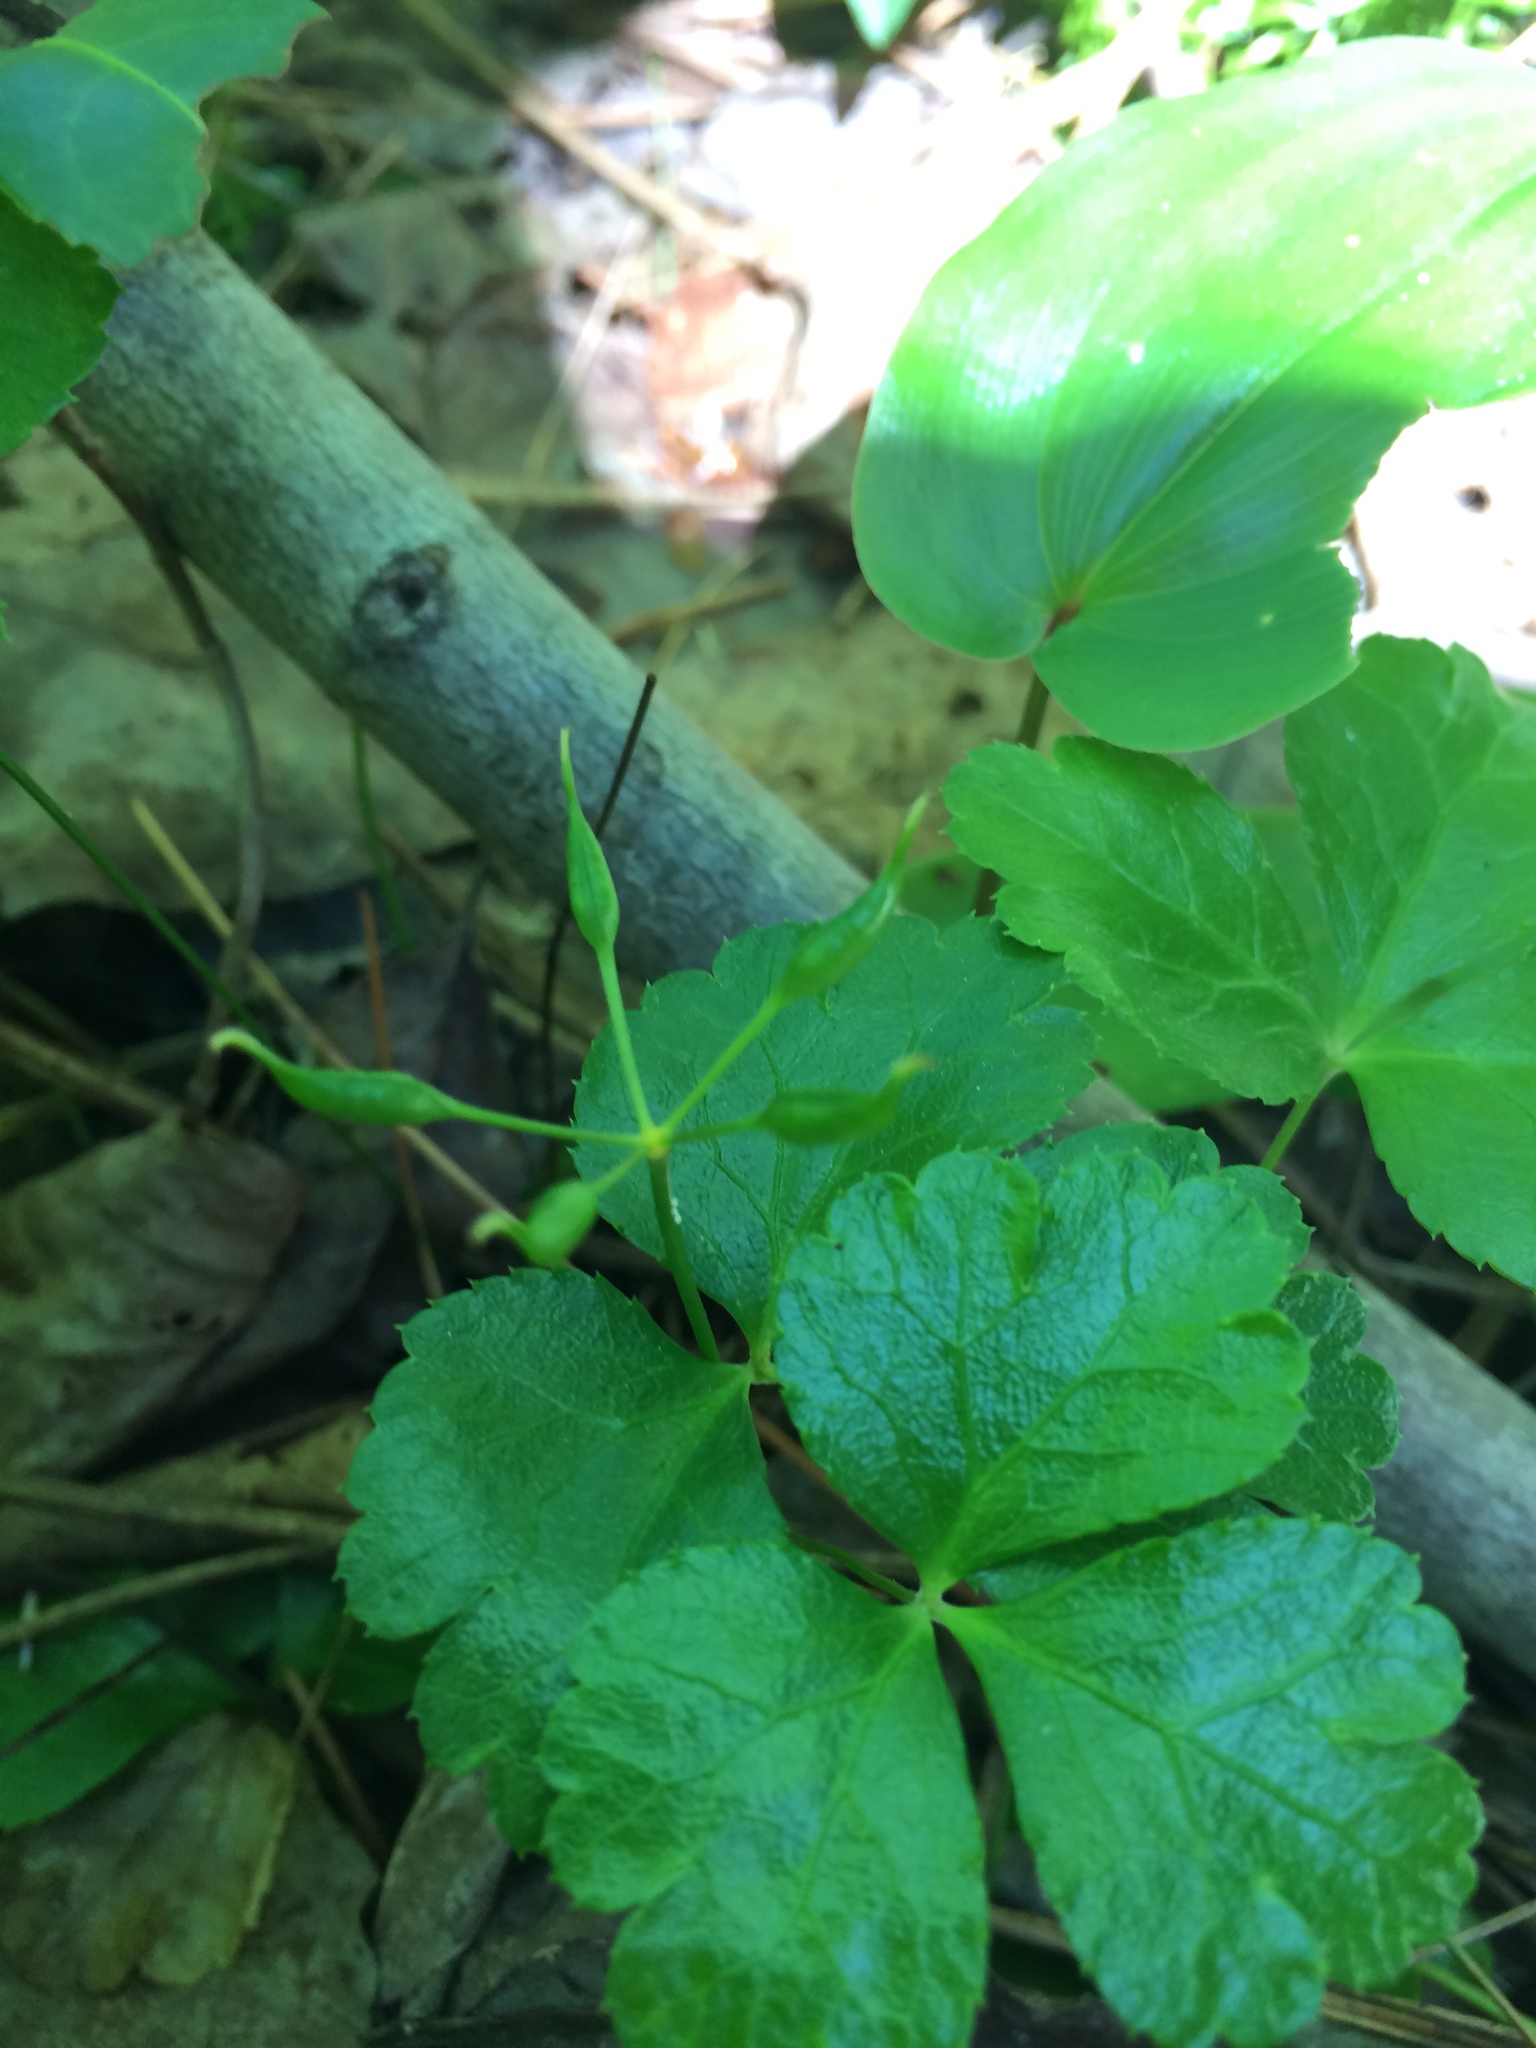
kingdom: Plantae
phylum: Tracheophyta
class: Magnoliopsida
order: Ranunculales
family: Ranunculaceae
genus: Coptis
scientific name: Coptis trifolia
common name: Canker-root
